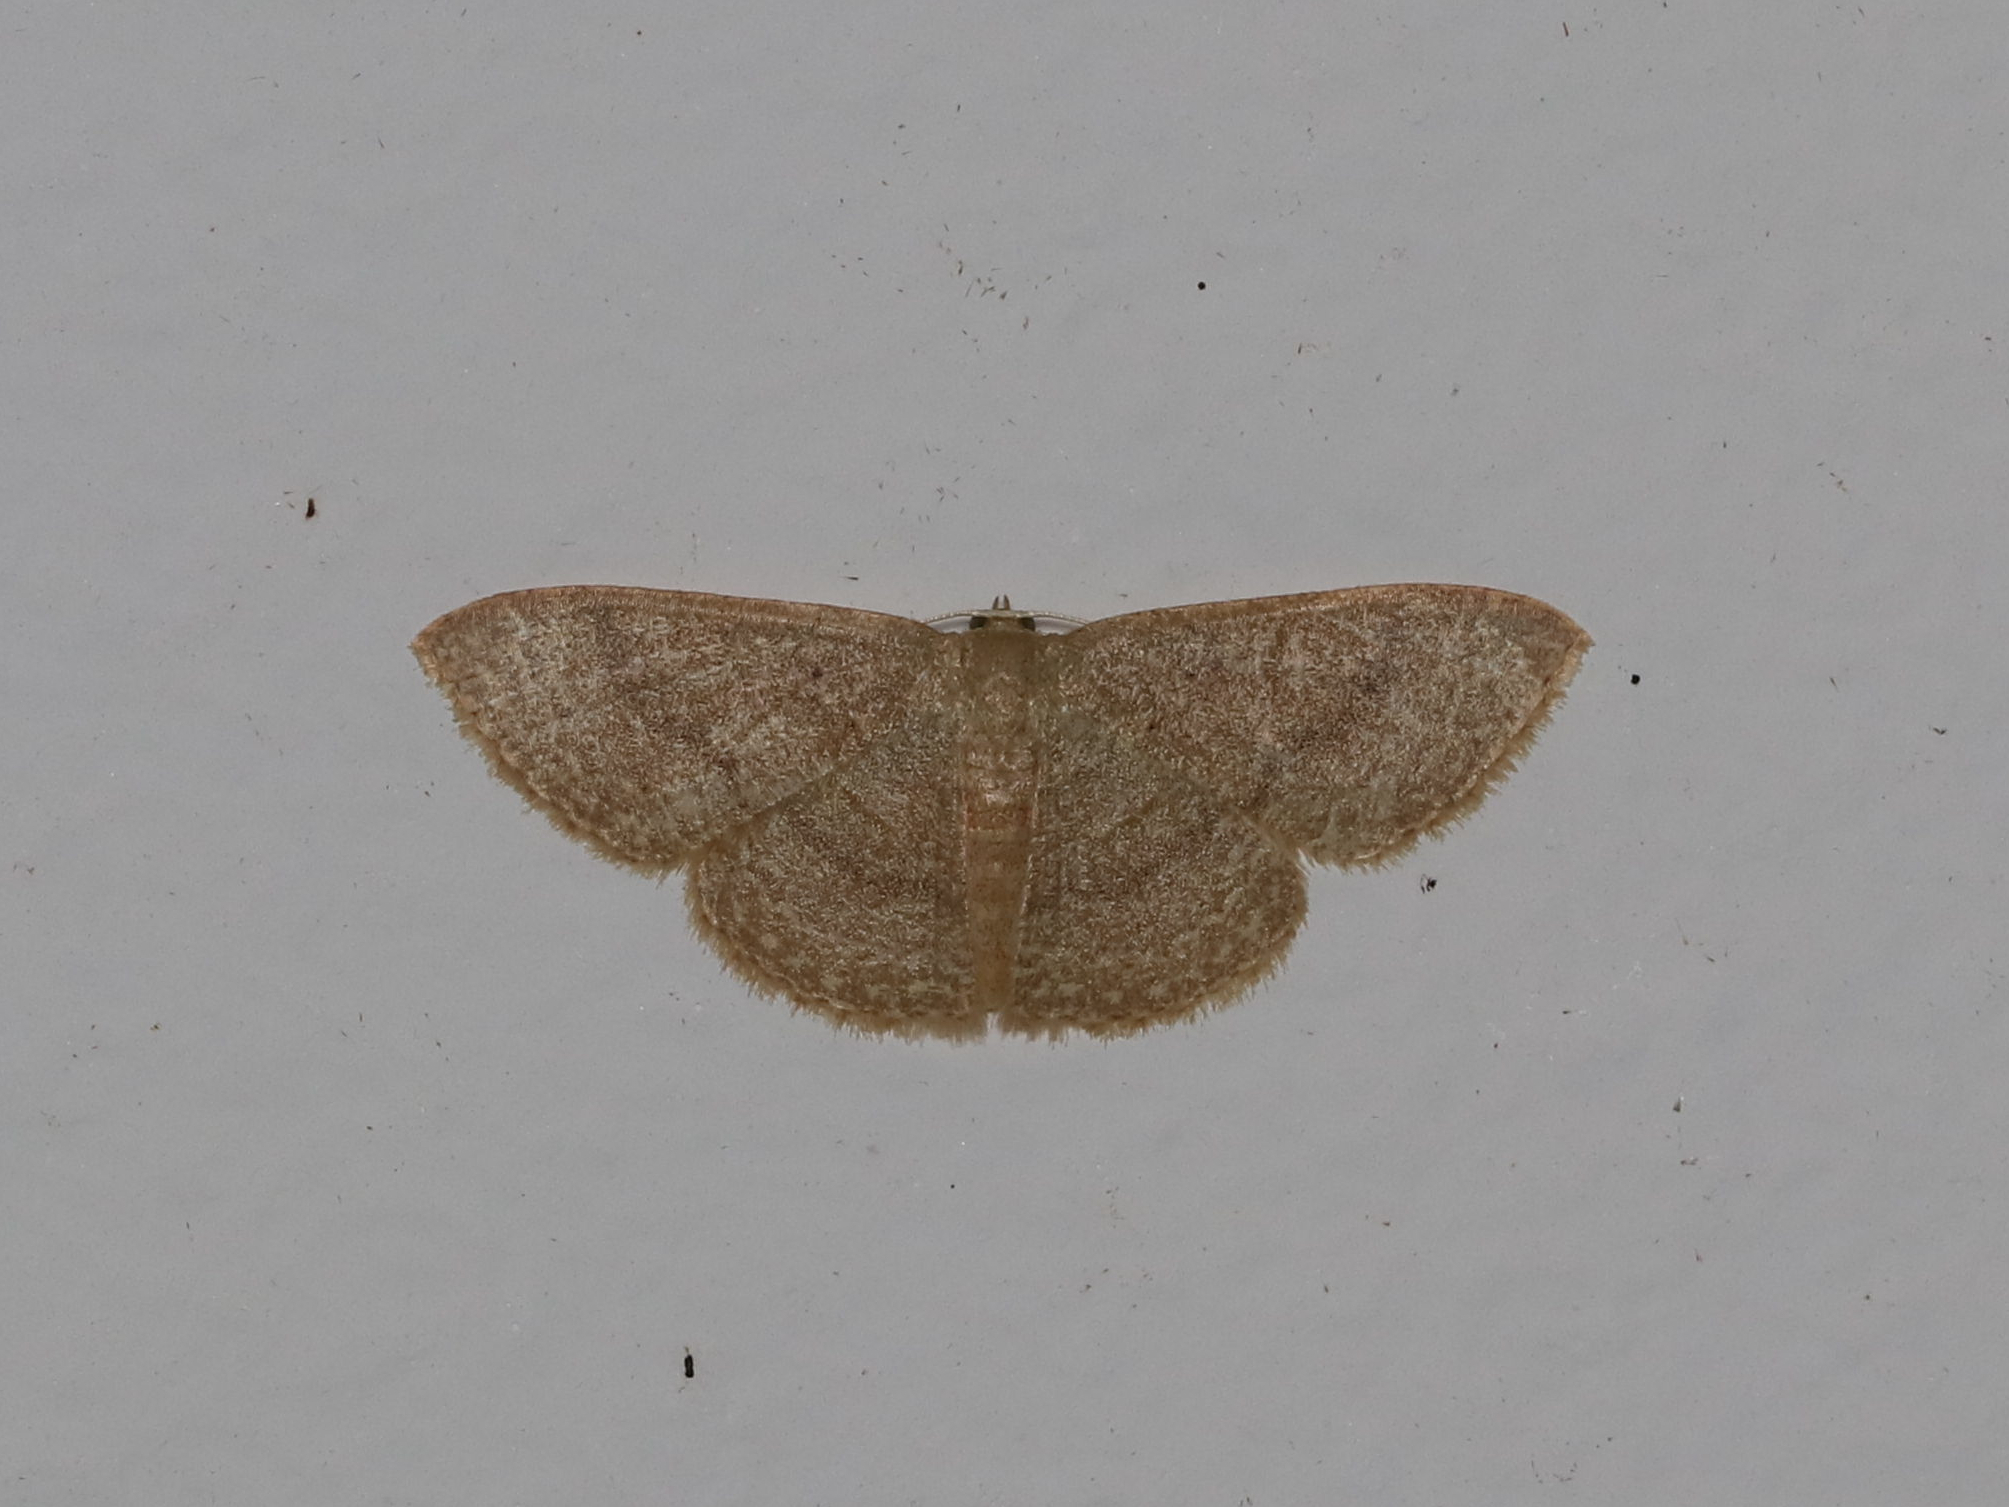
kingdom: Animalia
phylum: Arthropoda
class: Insecta
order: Lepidoptera
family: Geometridae
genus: Pleuroprucha
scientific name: Pleuroprucha insulsaria
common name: Common tan wave
